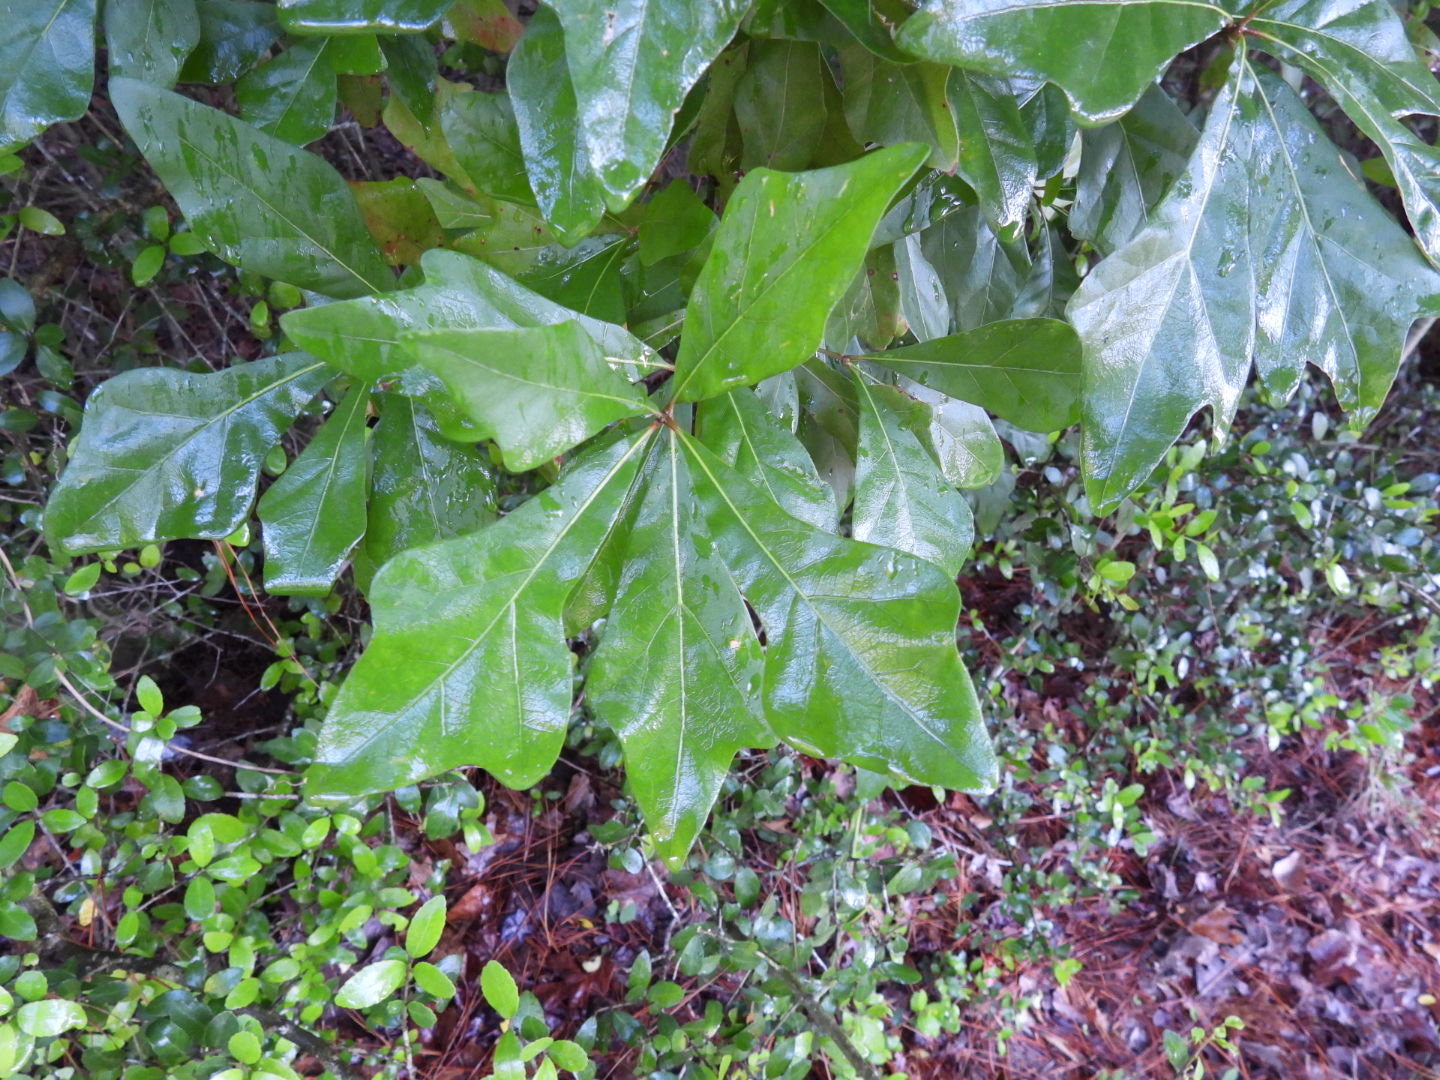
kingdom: Plantae
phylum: Tracheophyta
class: Magnoliopsida
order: Fagales
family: Fagaceae
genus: Quercus
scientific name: Quercus nigra
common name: Water oak
